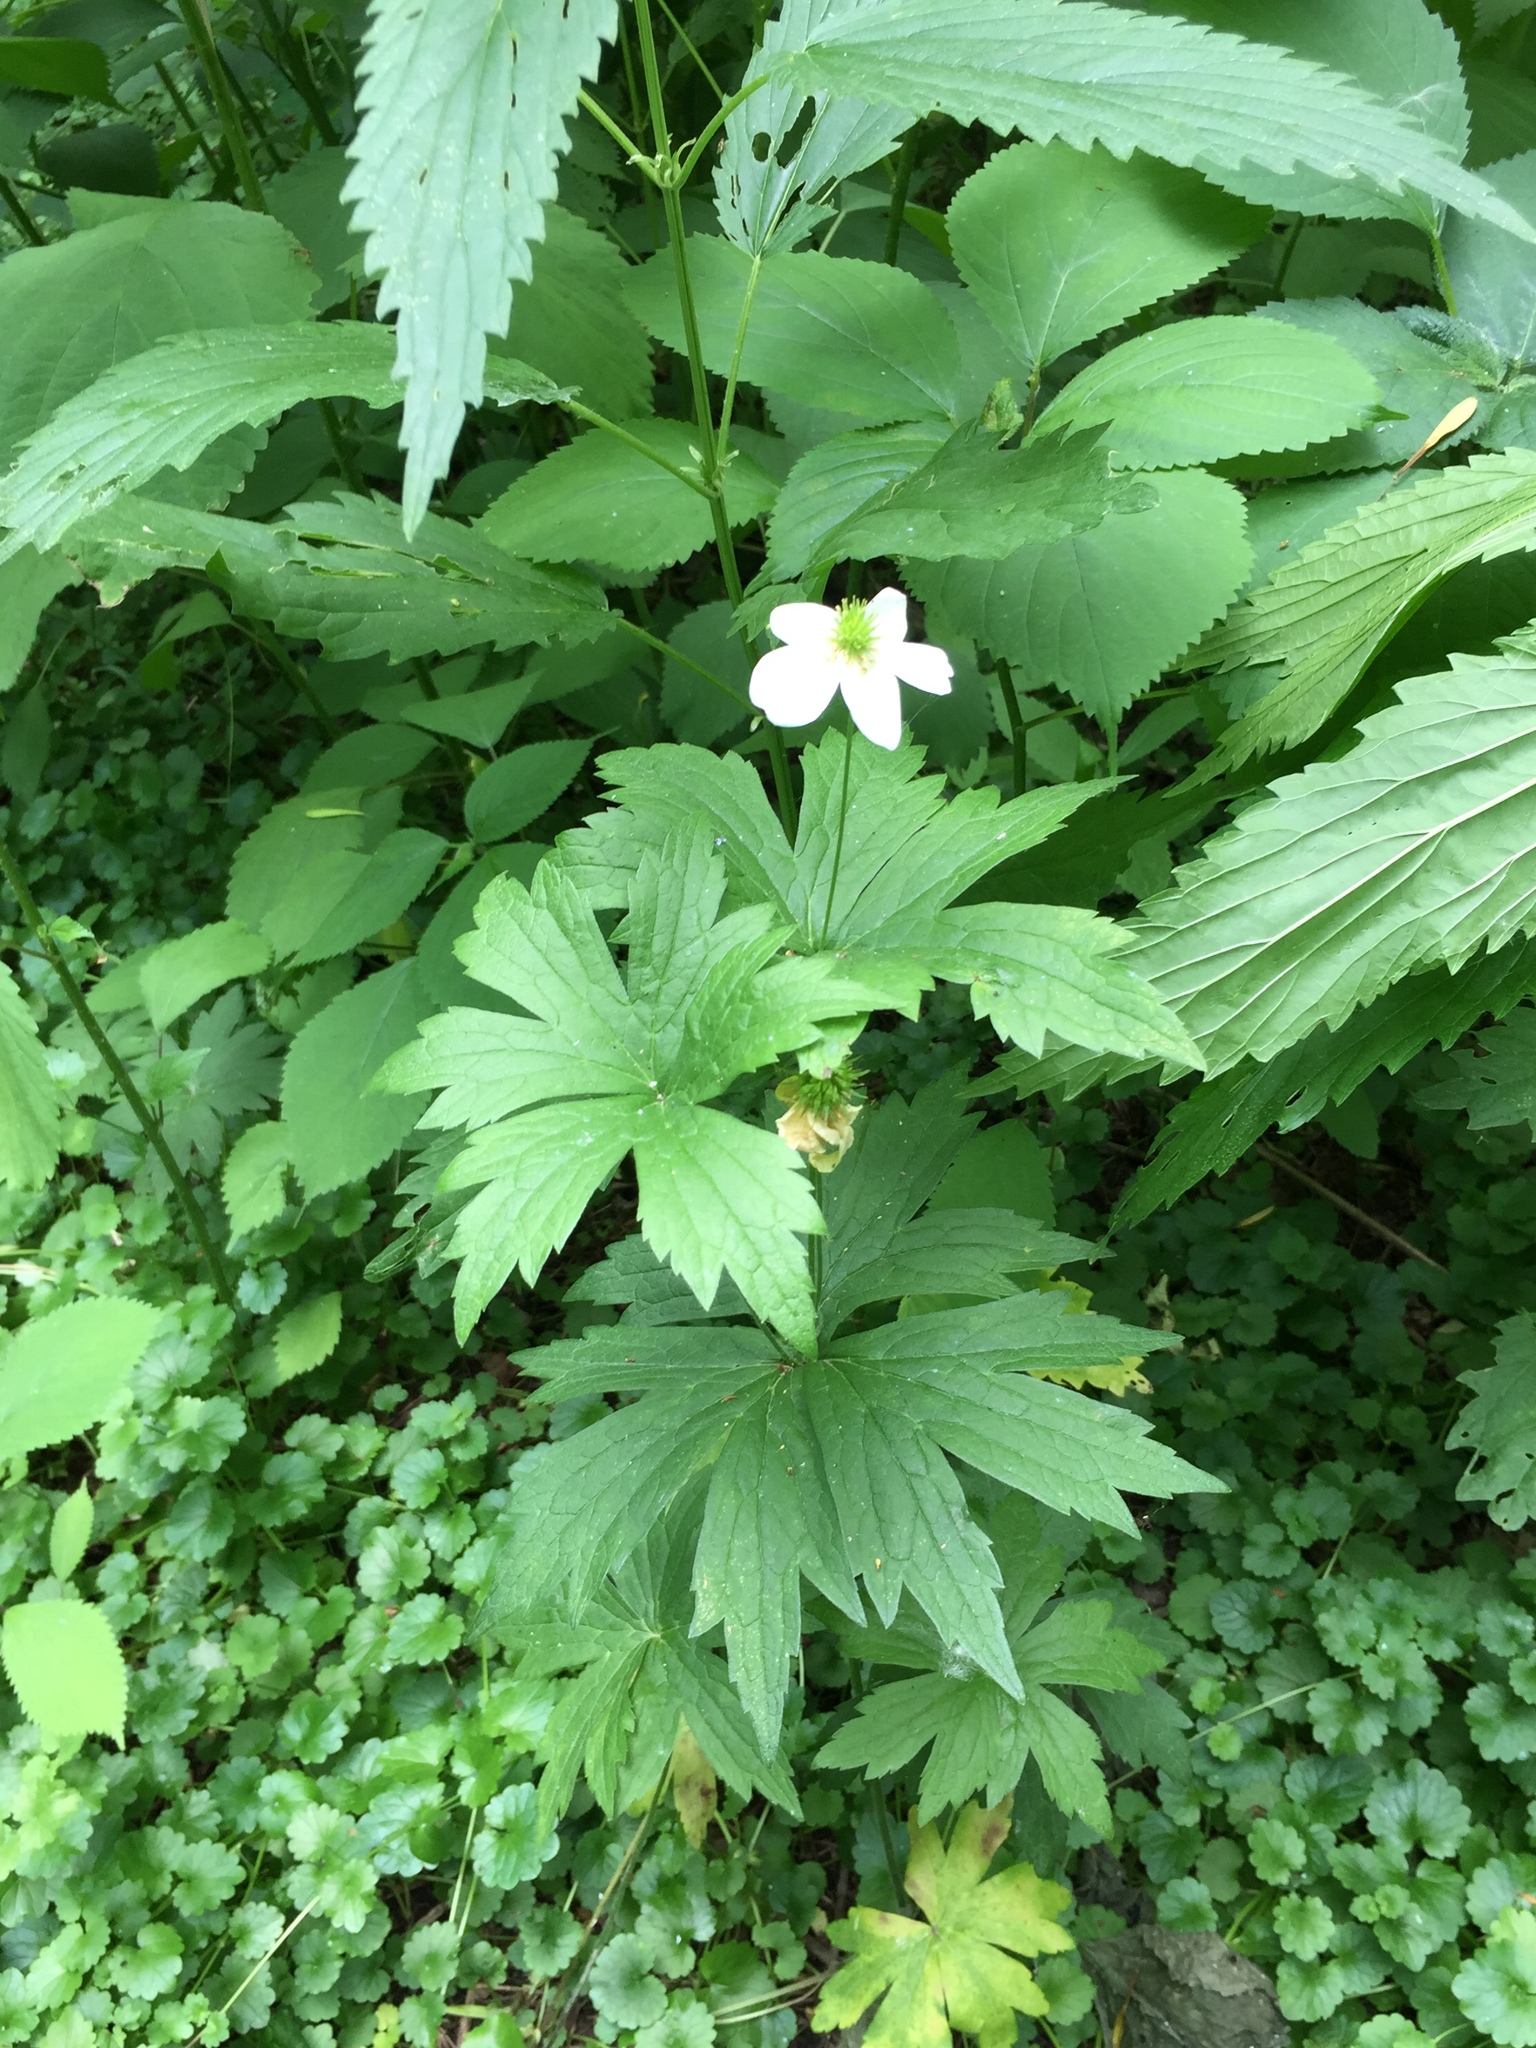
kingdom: Plantae
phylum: Tracheophyta
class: Magnoliopsida
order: Ranunculales
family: Ranunculaceae
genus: Anemonastrum
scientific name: Anemonastrum canadense
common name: Canada anemone
